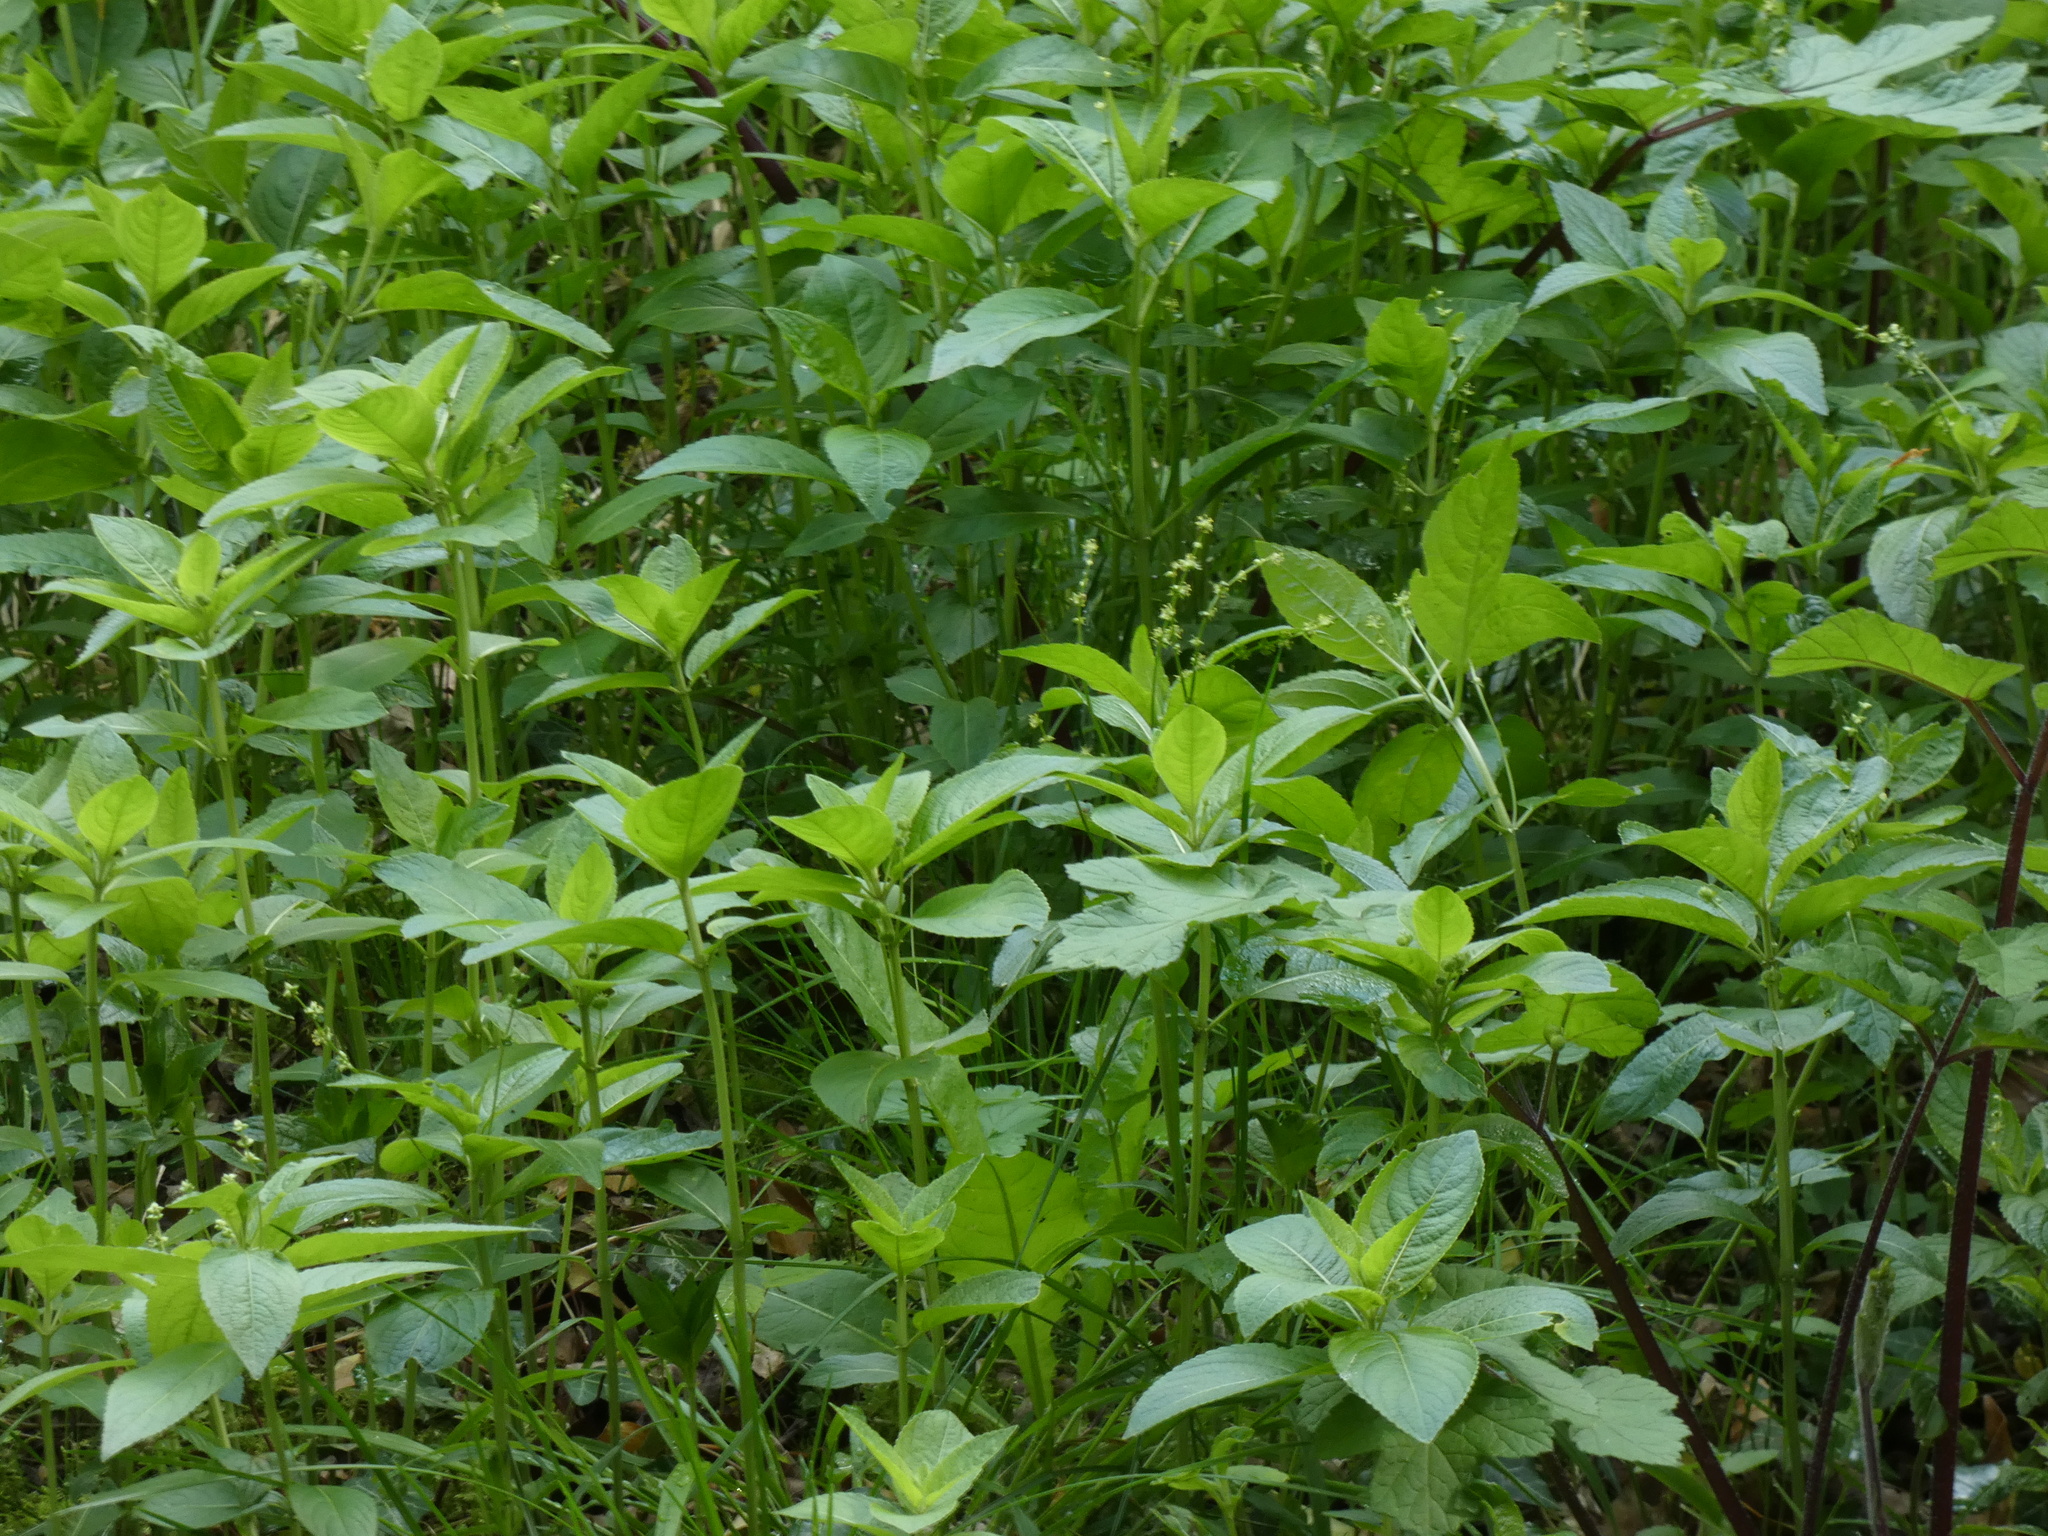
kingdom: Plantae
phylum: Tracheophyta
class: Magnoliopsida
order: Malpighiales
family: Euphorbiaceae
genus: Mercurialis
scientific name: Mercurialis perennis
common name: Dog mercury
